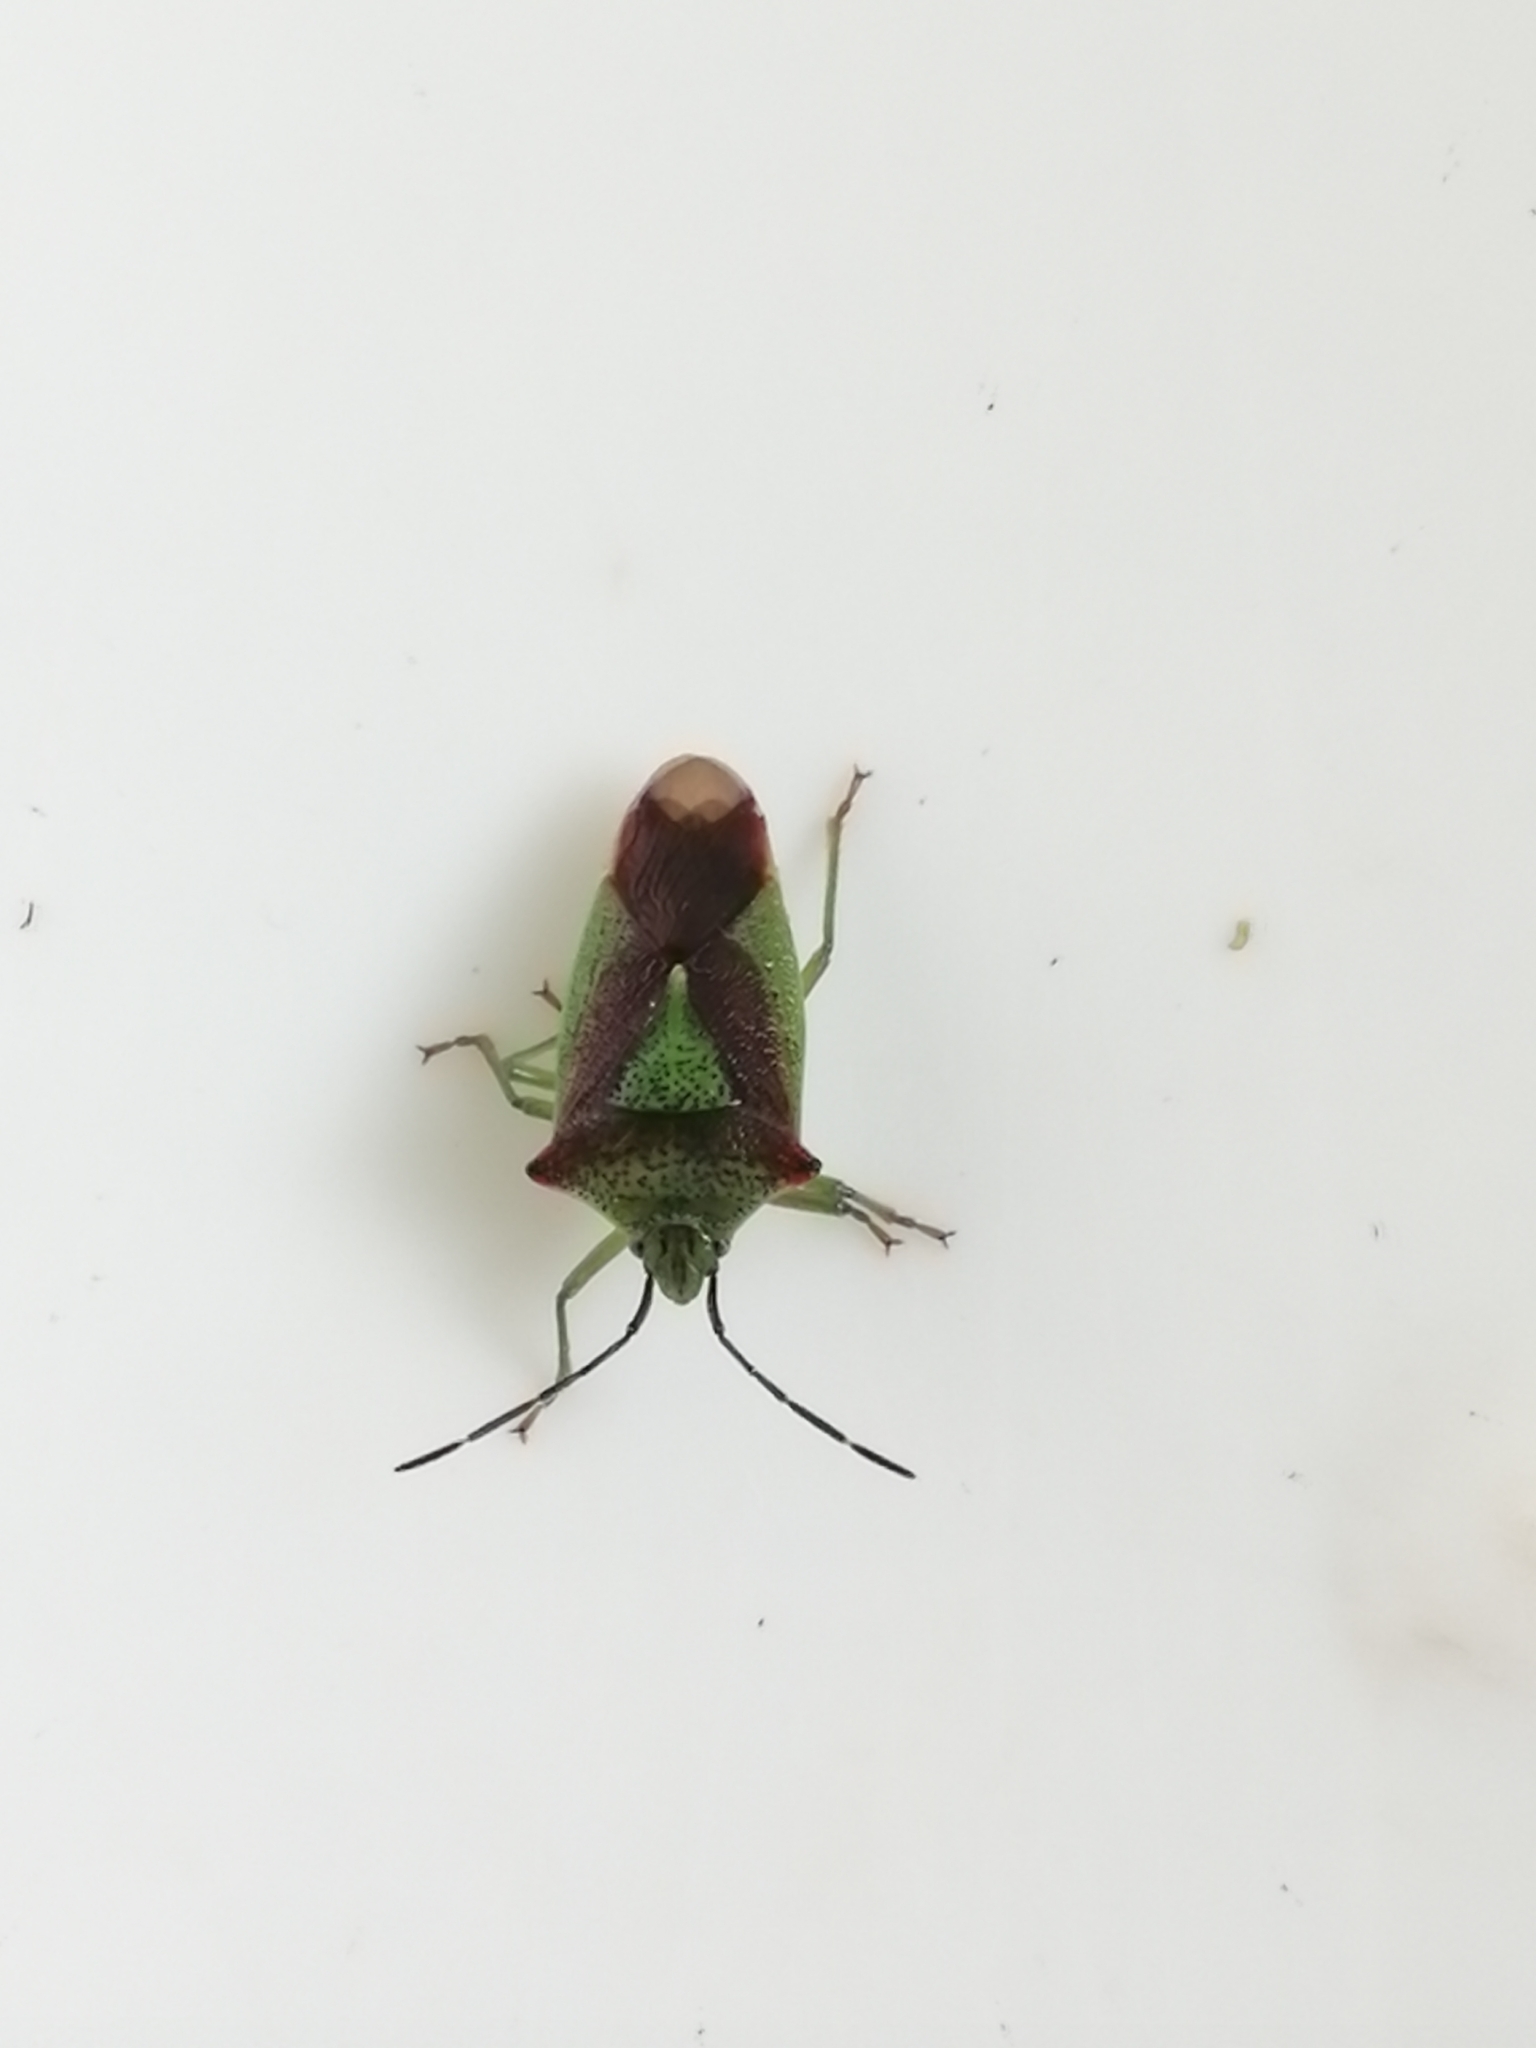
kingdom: Animalia
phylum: Arthropoda
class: Insecta
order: Hemiptera
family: Acanthosomatidae
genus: Acanthosoma
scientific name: Acanthosoma haemorrhoidale
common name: Hawthorn shieldbug
